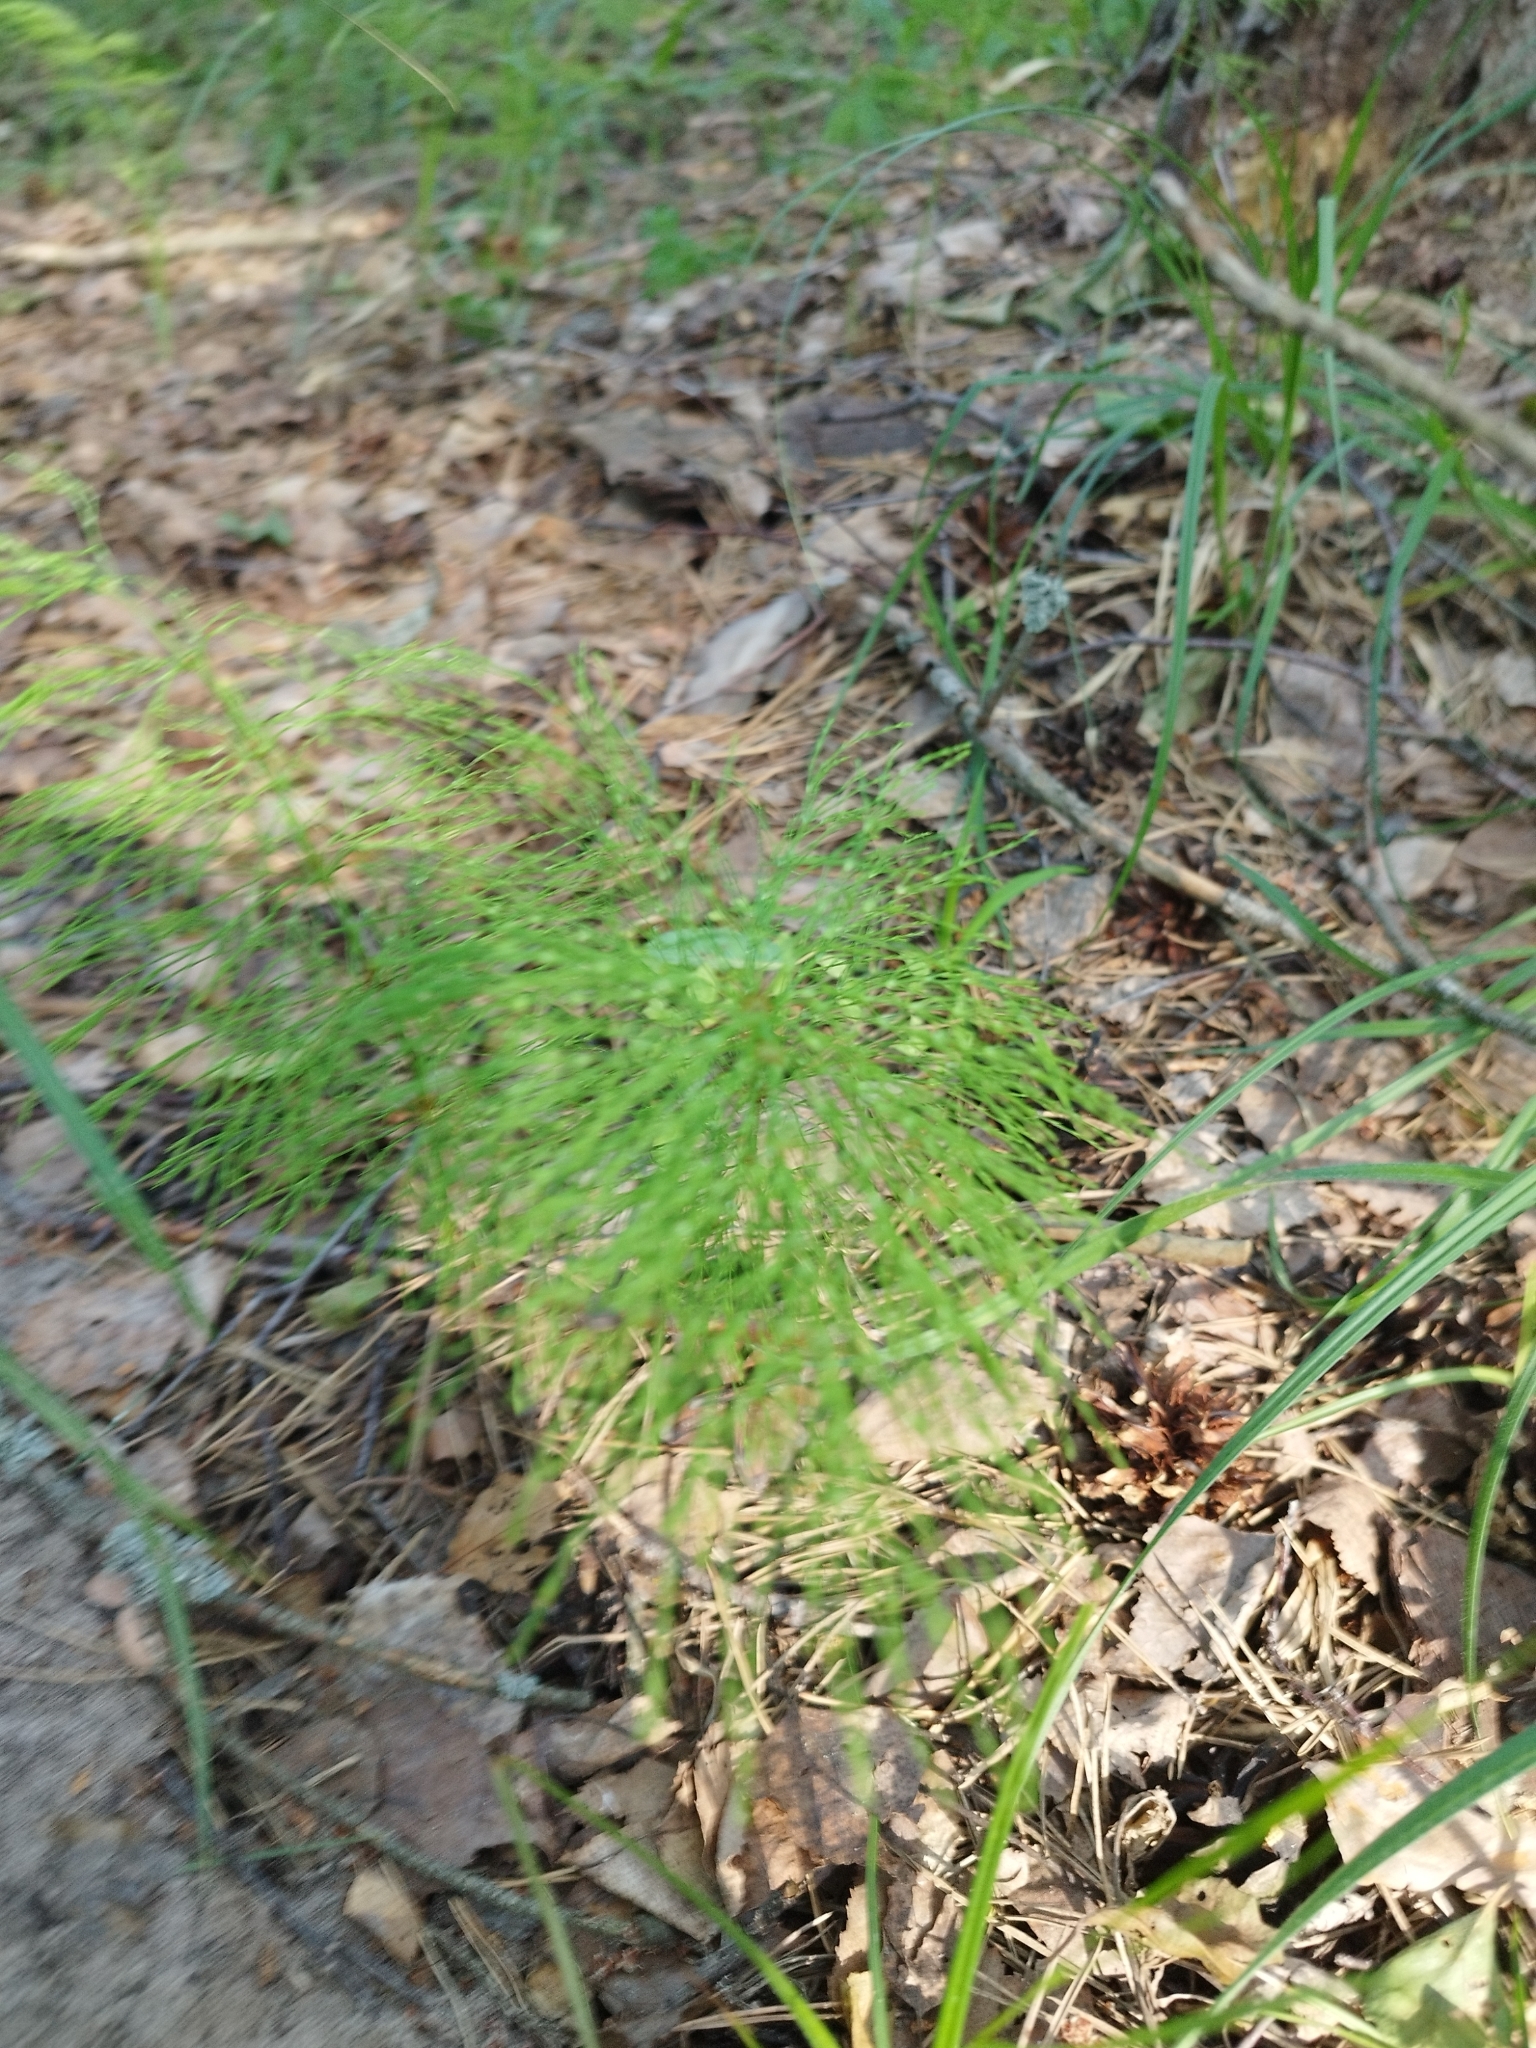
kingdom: Plantae
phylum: Tracheophyta
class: Polypodiopsida
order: Equisetales
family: Equisetaceae
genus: Equisetum
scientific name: Equisetum sylvaticum
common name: Wood horsetail
